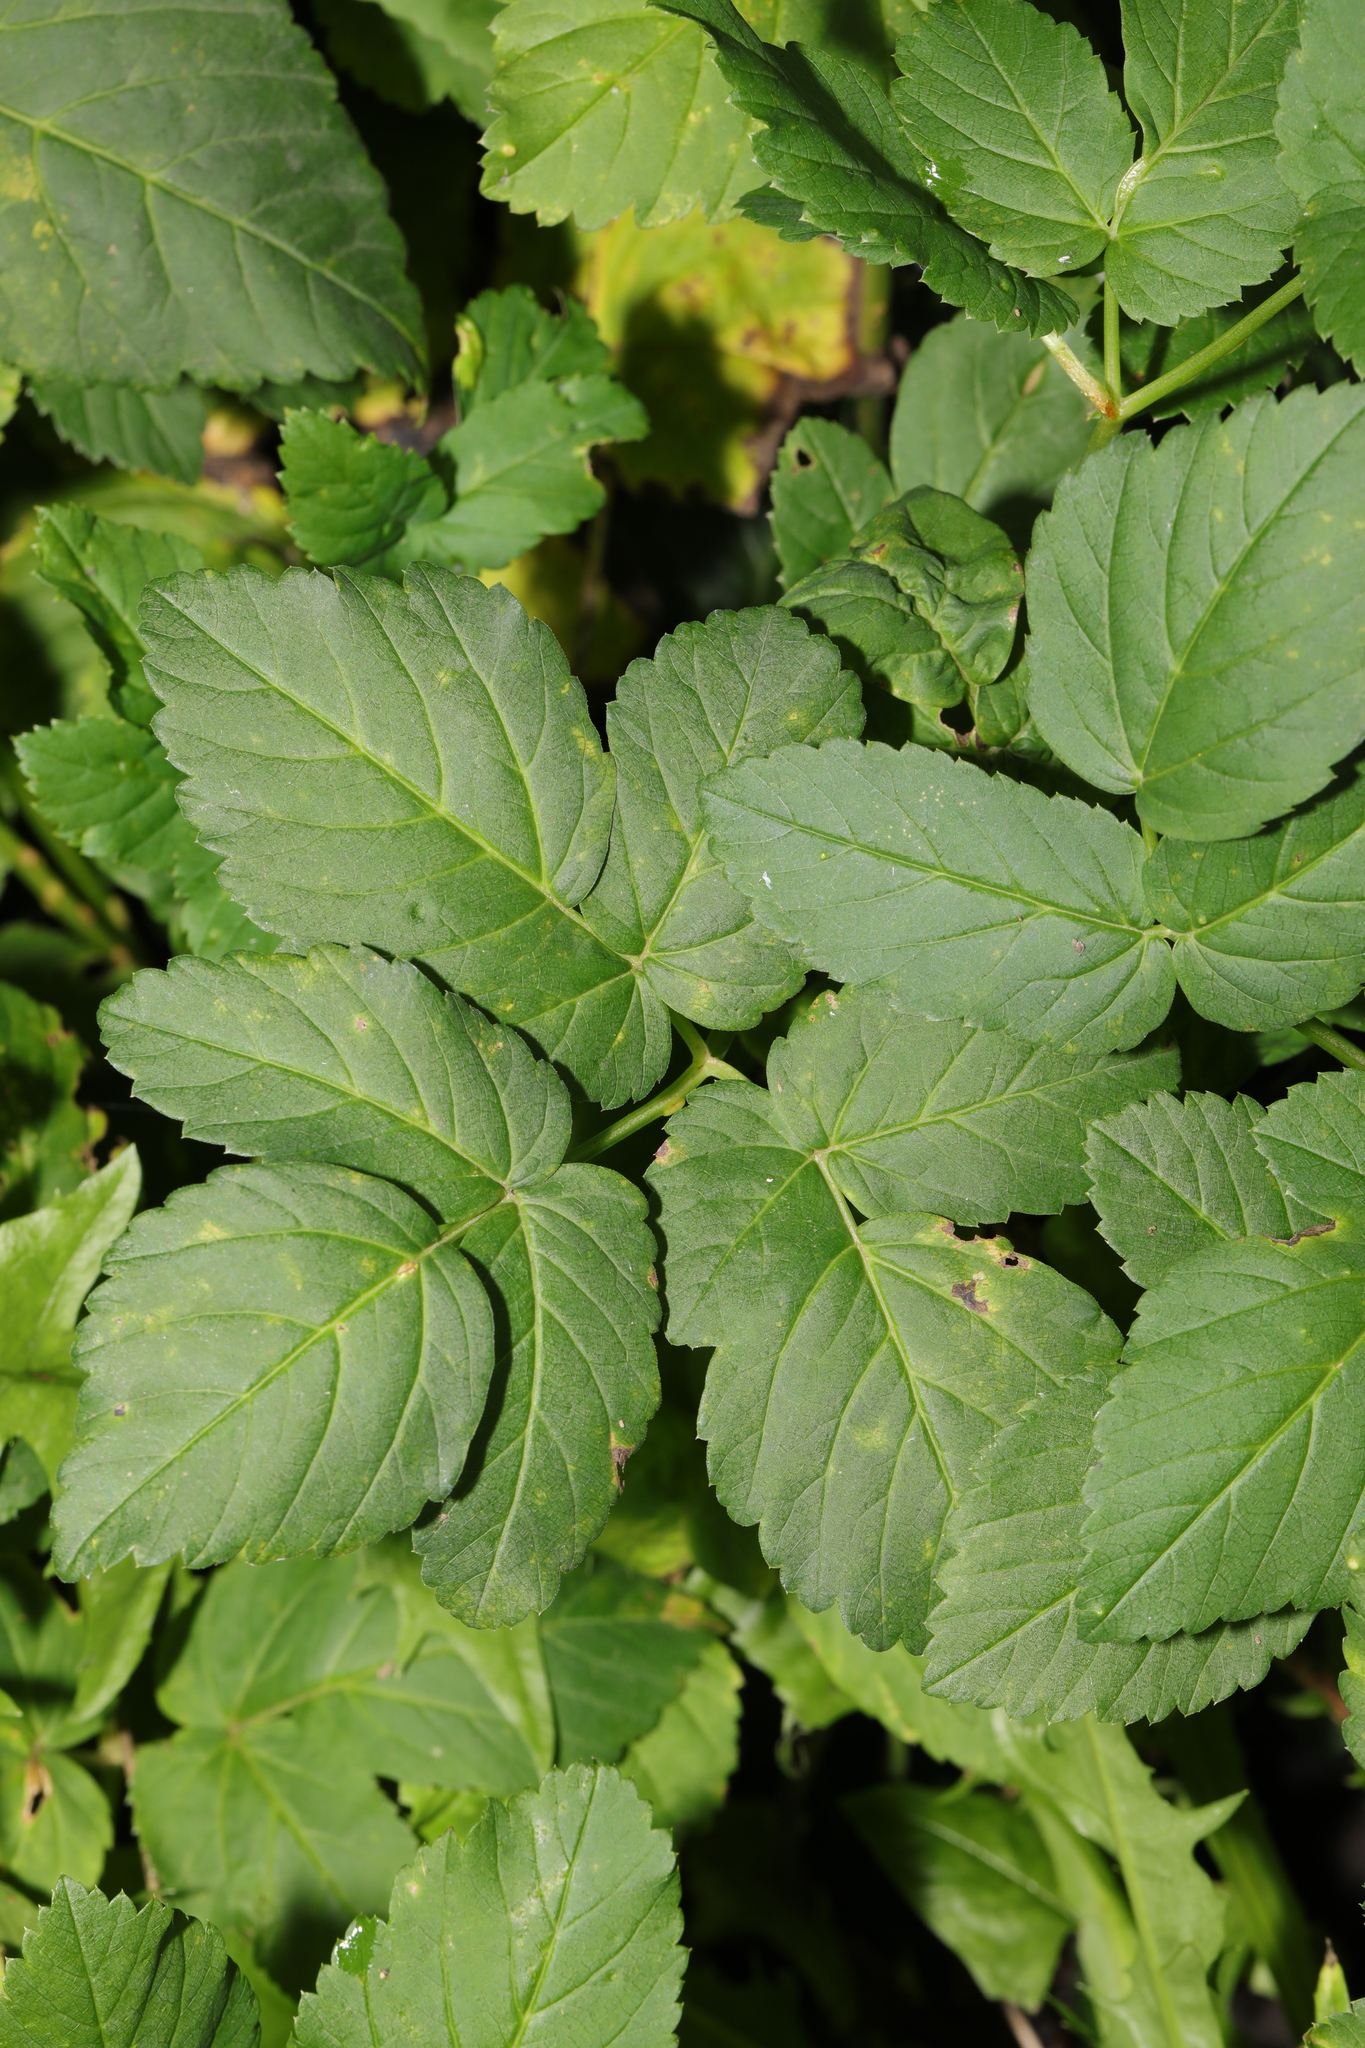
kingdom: Plantae
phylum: Tracheophyta
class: Magnoliopsida
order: Apiales
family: Apiaceae
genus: Aegopodium
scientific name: Aegopodium podagraria
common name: Ground-elder
